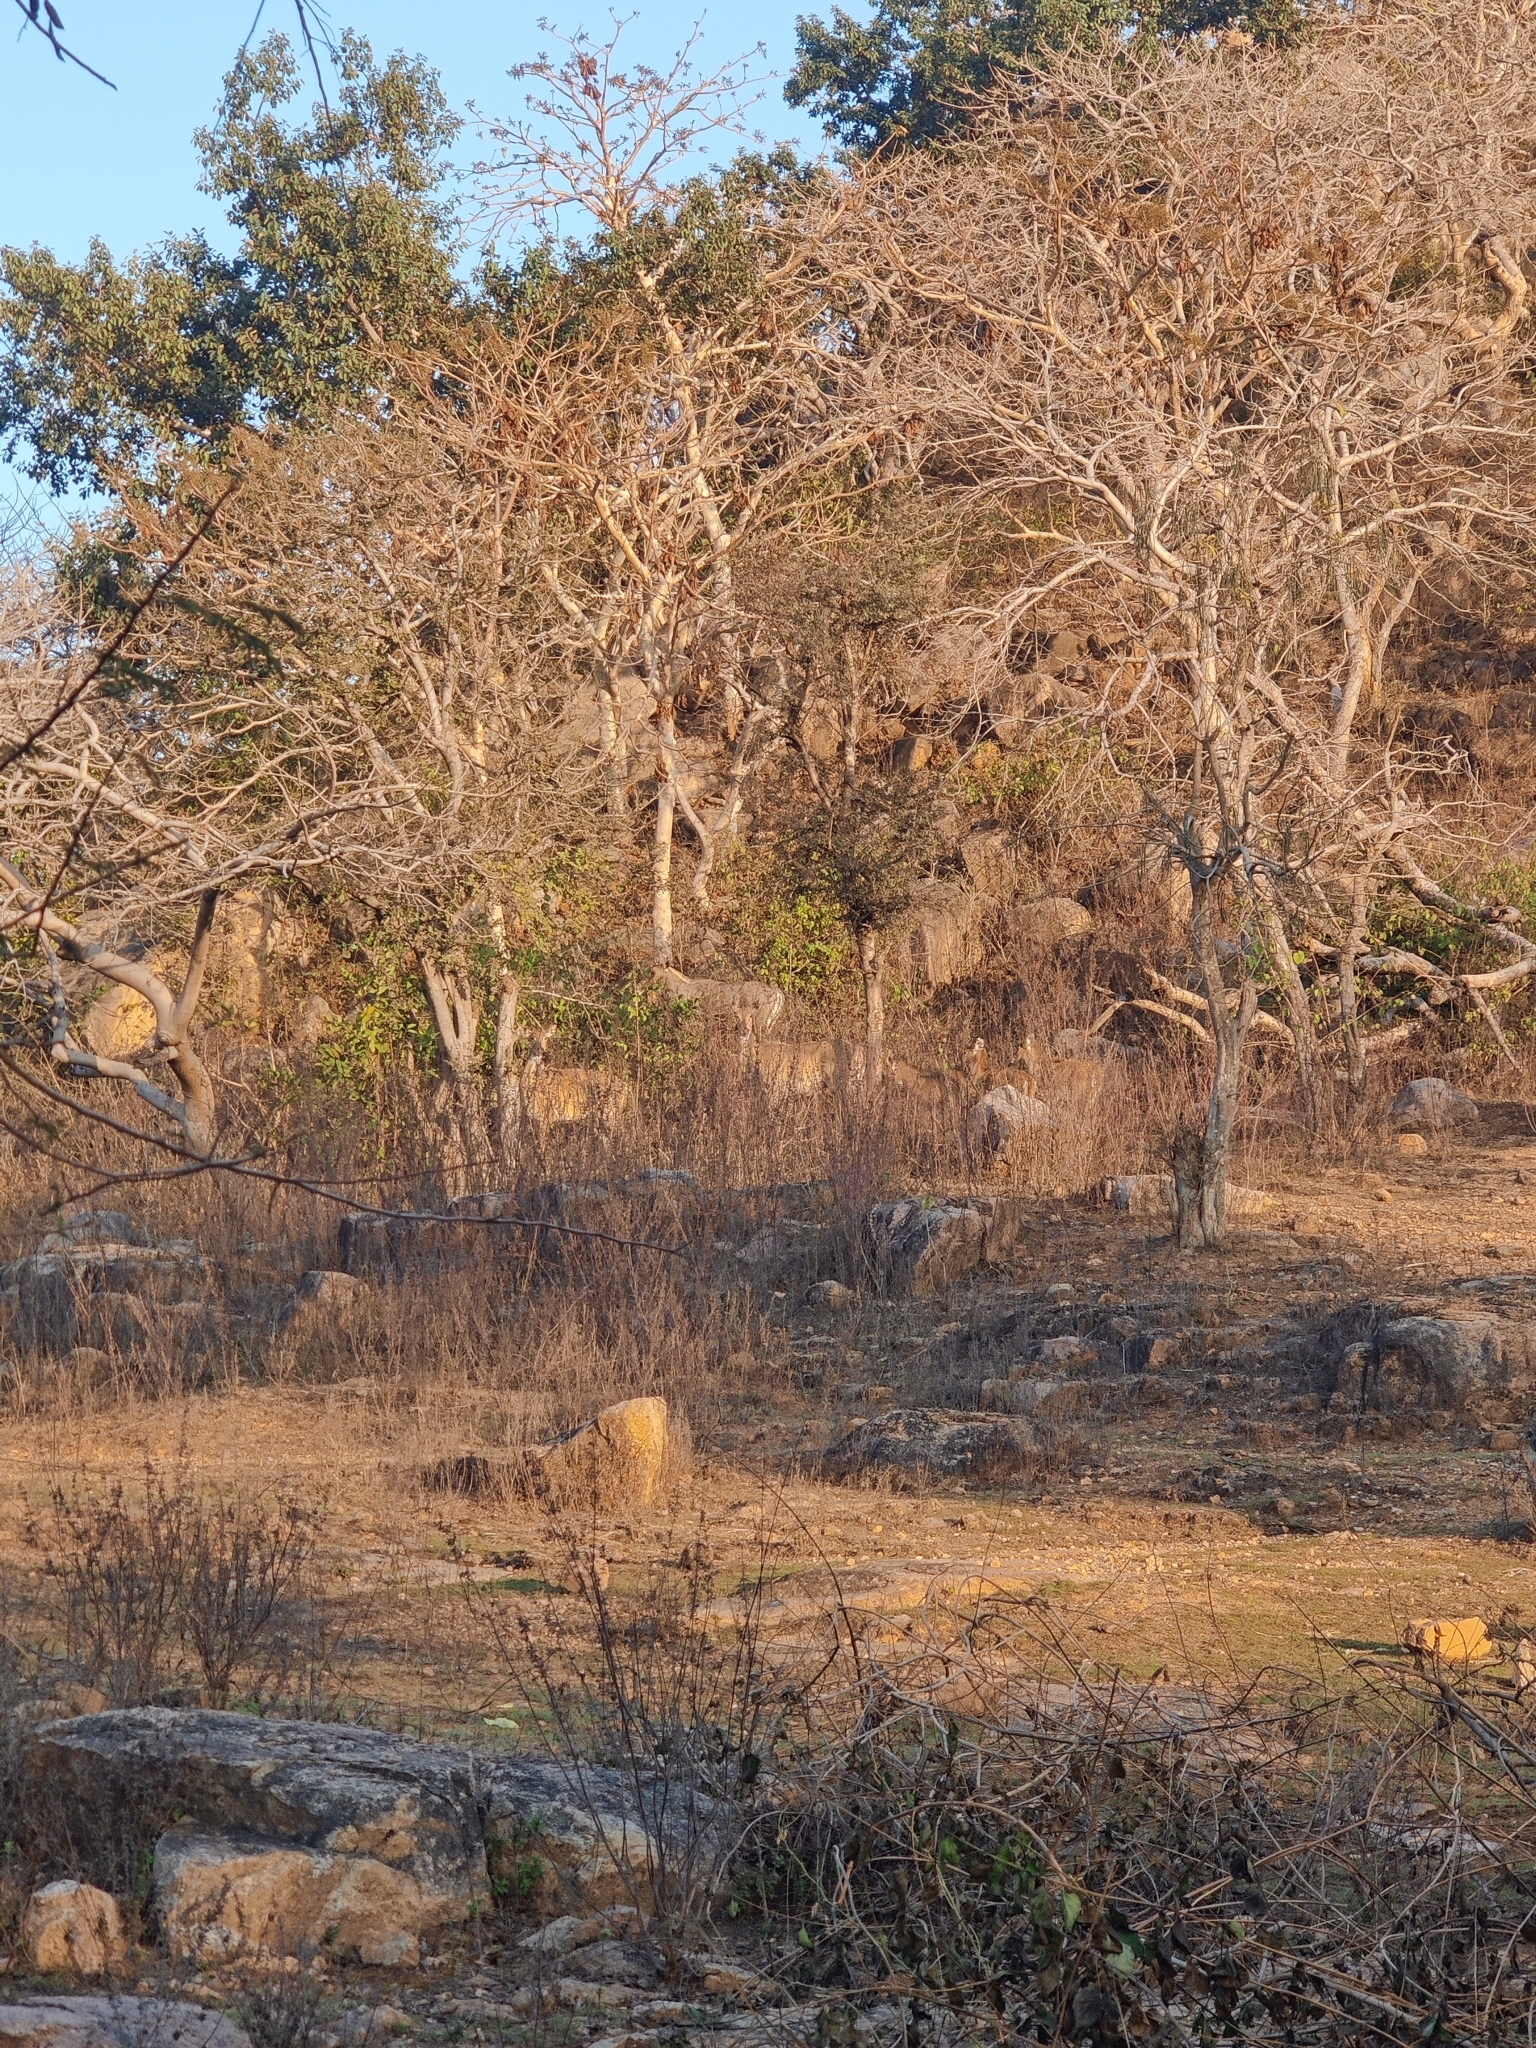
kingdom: Animalia
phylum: Chordata
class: Mammalia
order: Artiodactyla
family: Bovidae
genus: Boselaphus
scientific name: Boselaphus tragocamelus
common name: Nilgai
